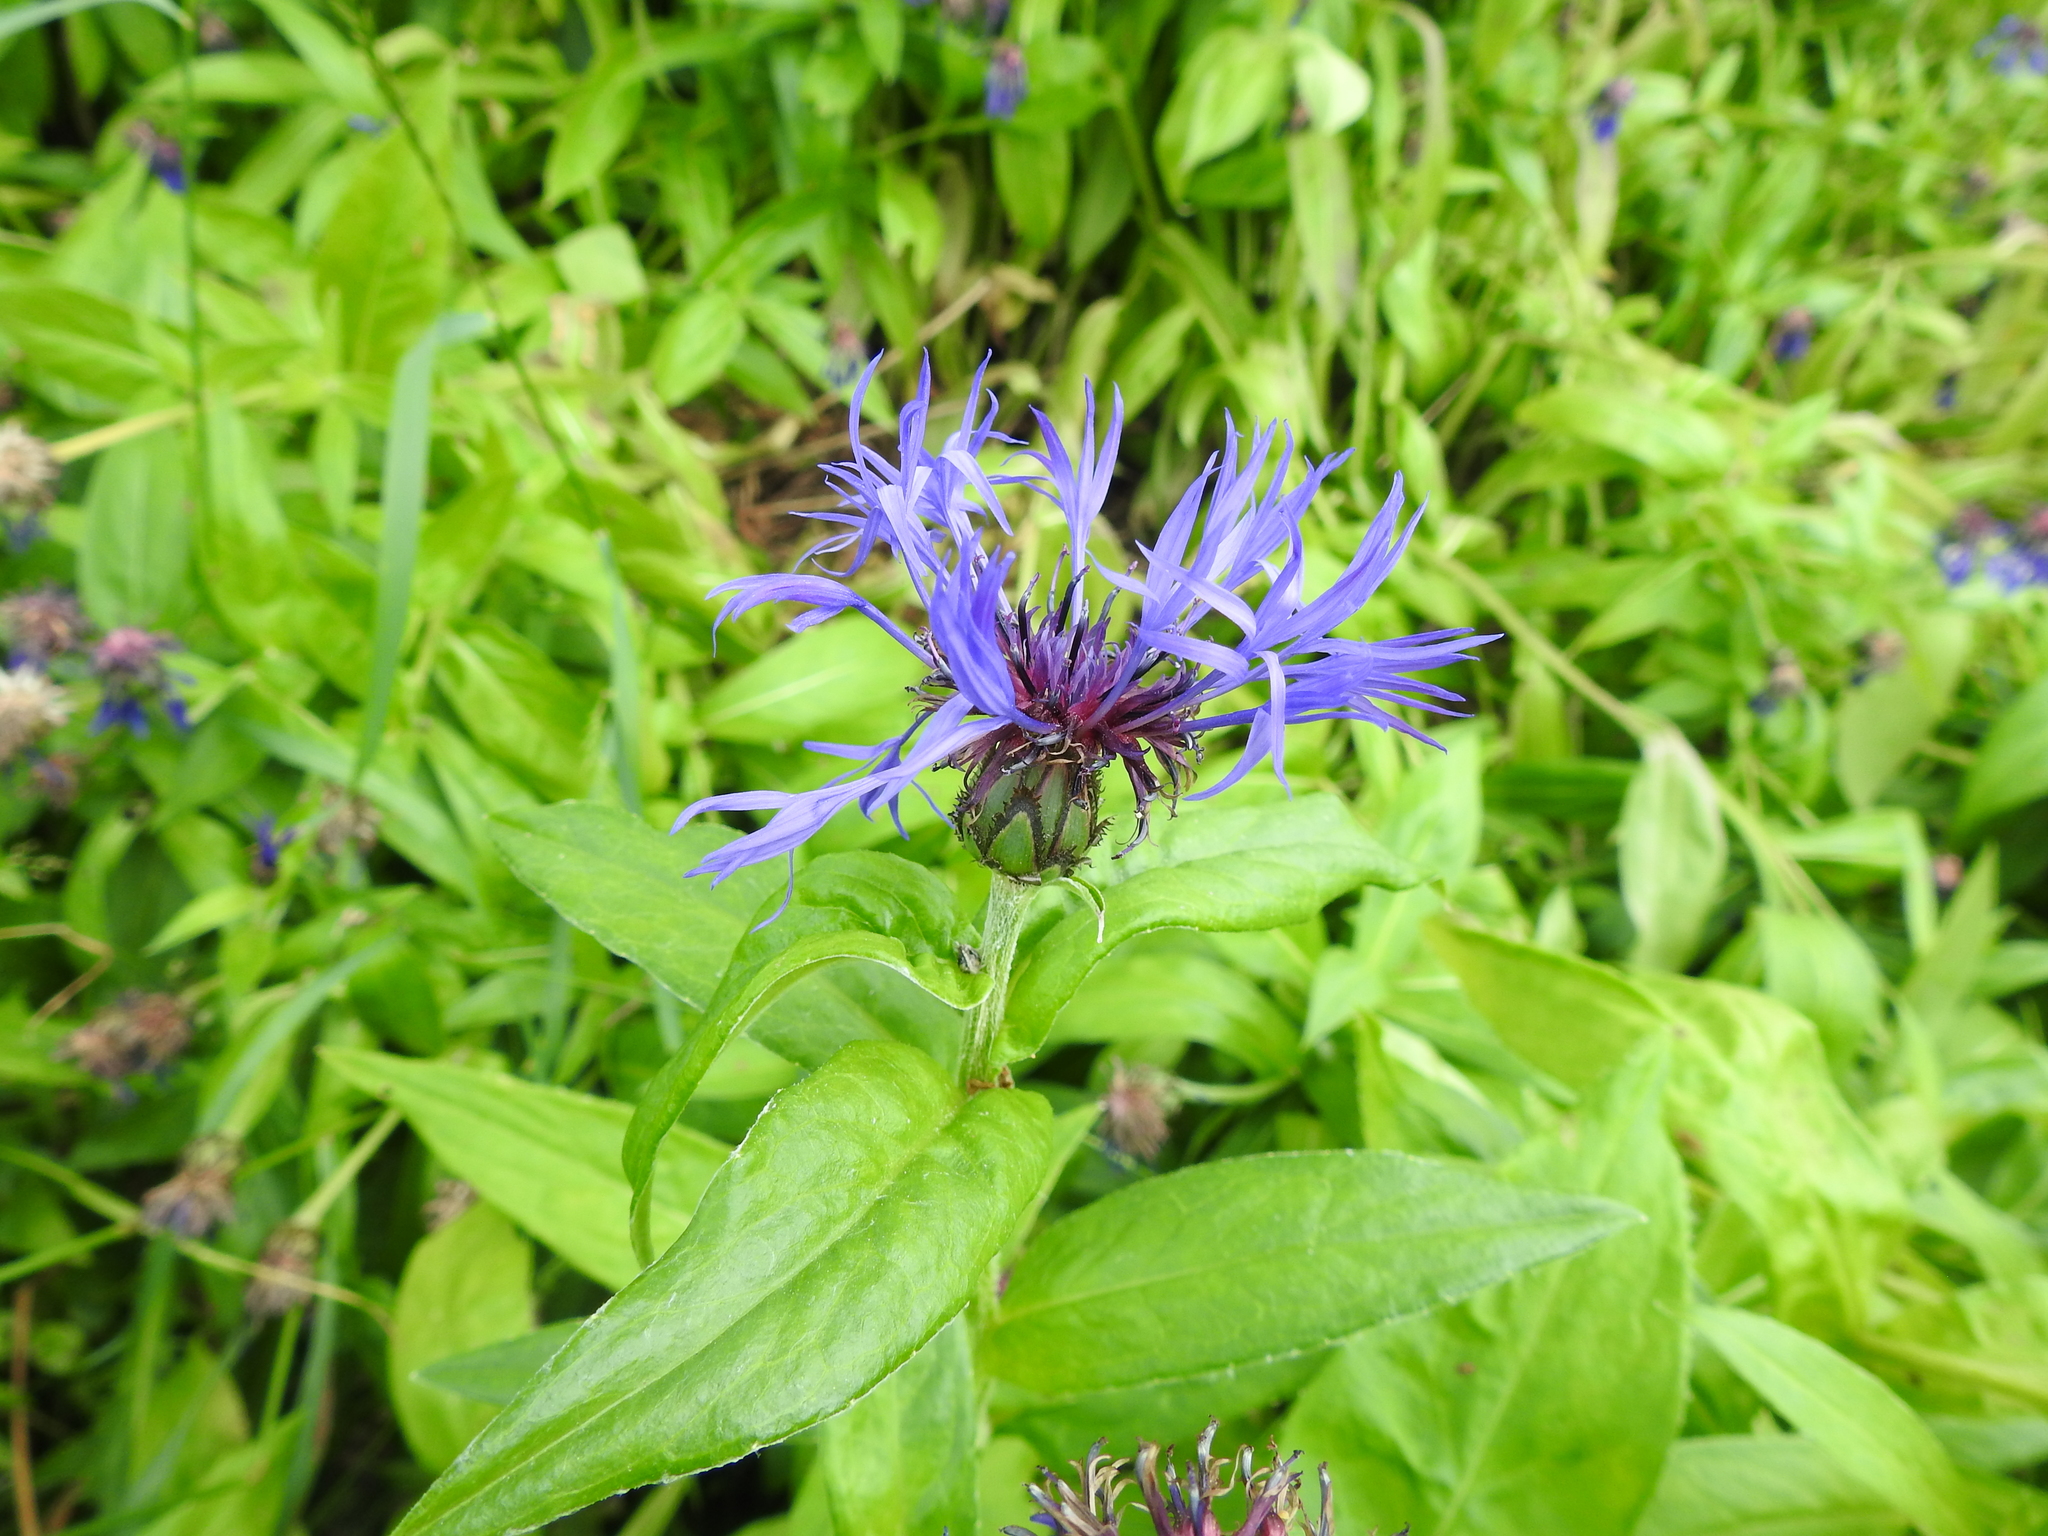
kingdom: Plantae
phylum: Tracheophyta
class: Magnoliopsida
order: Asterales
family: Asteraceae
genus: Centaurea
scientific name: Centaurea montana
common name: Perennial cornflower
